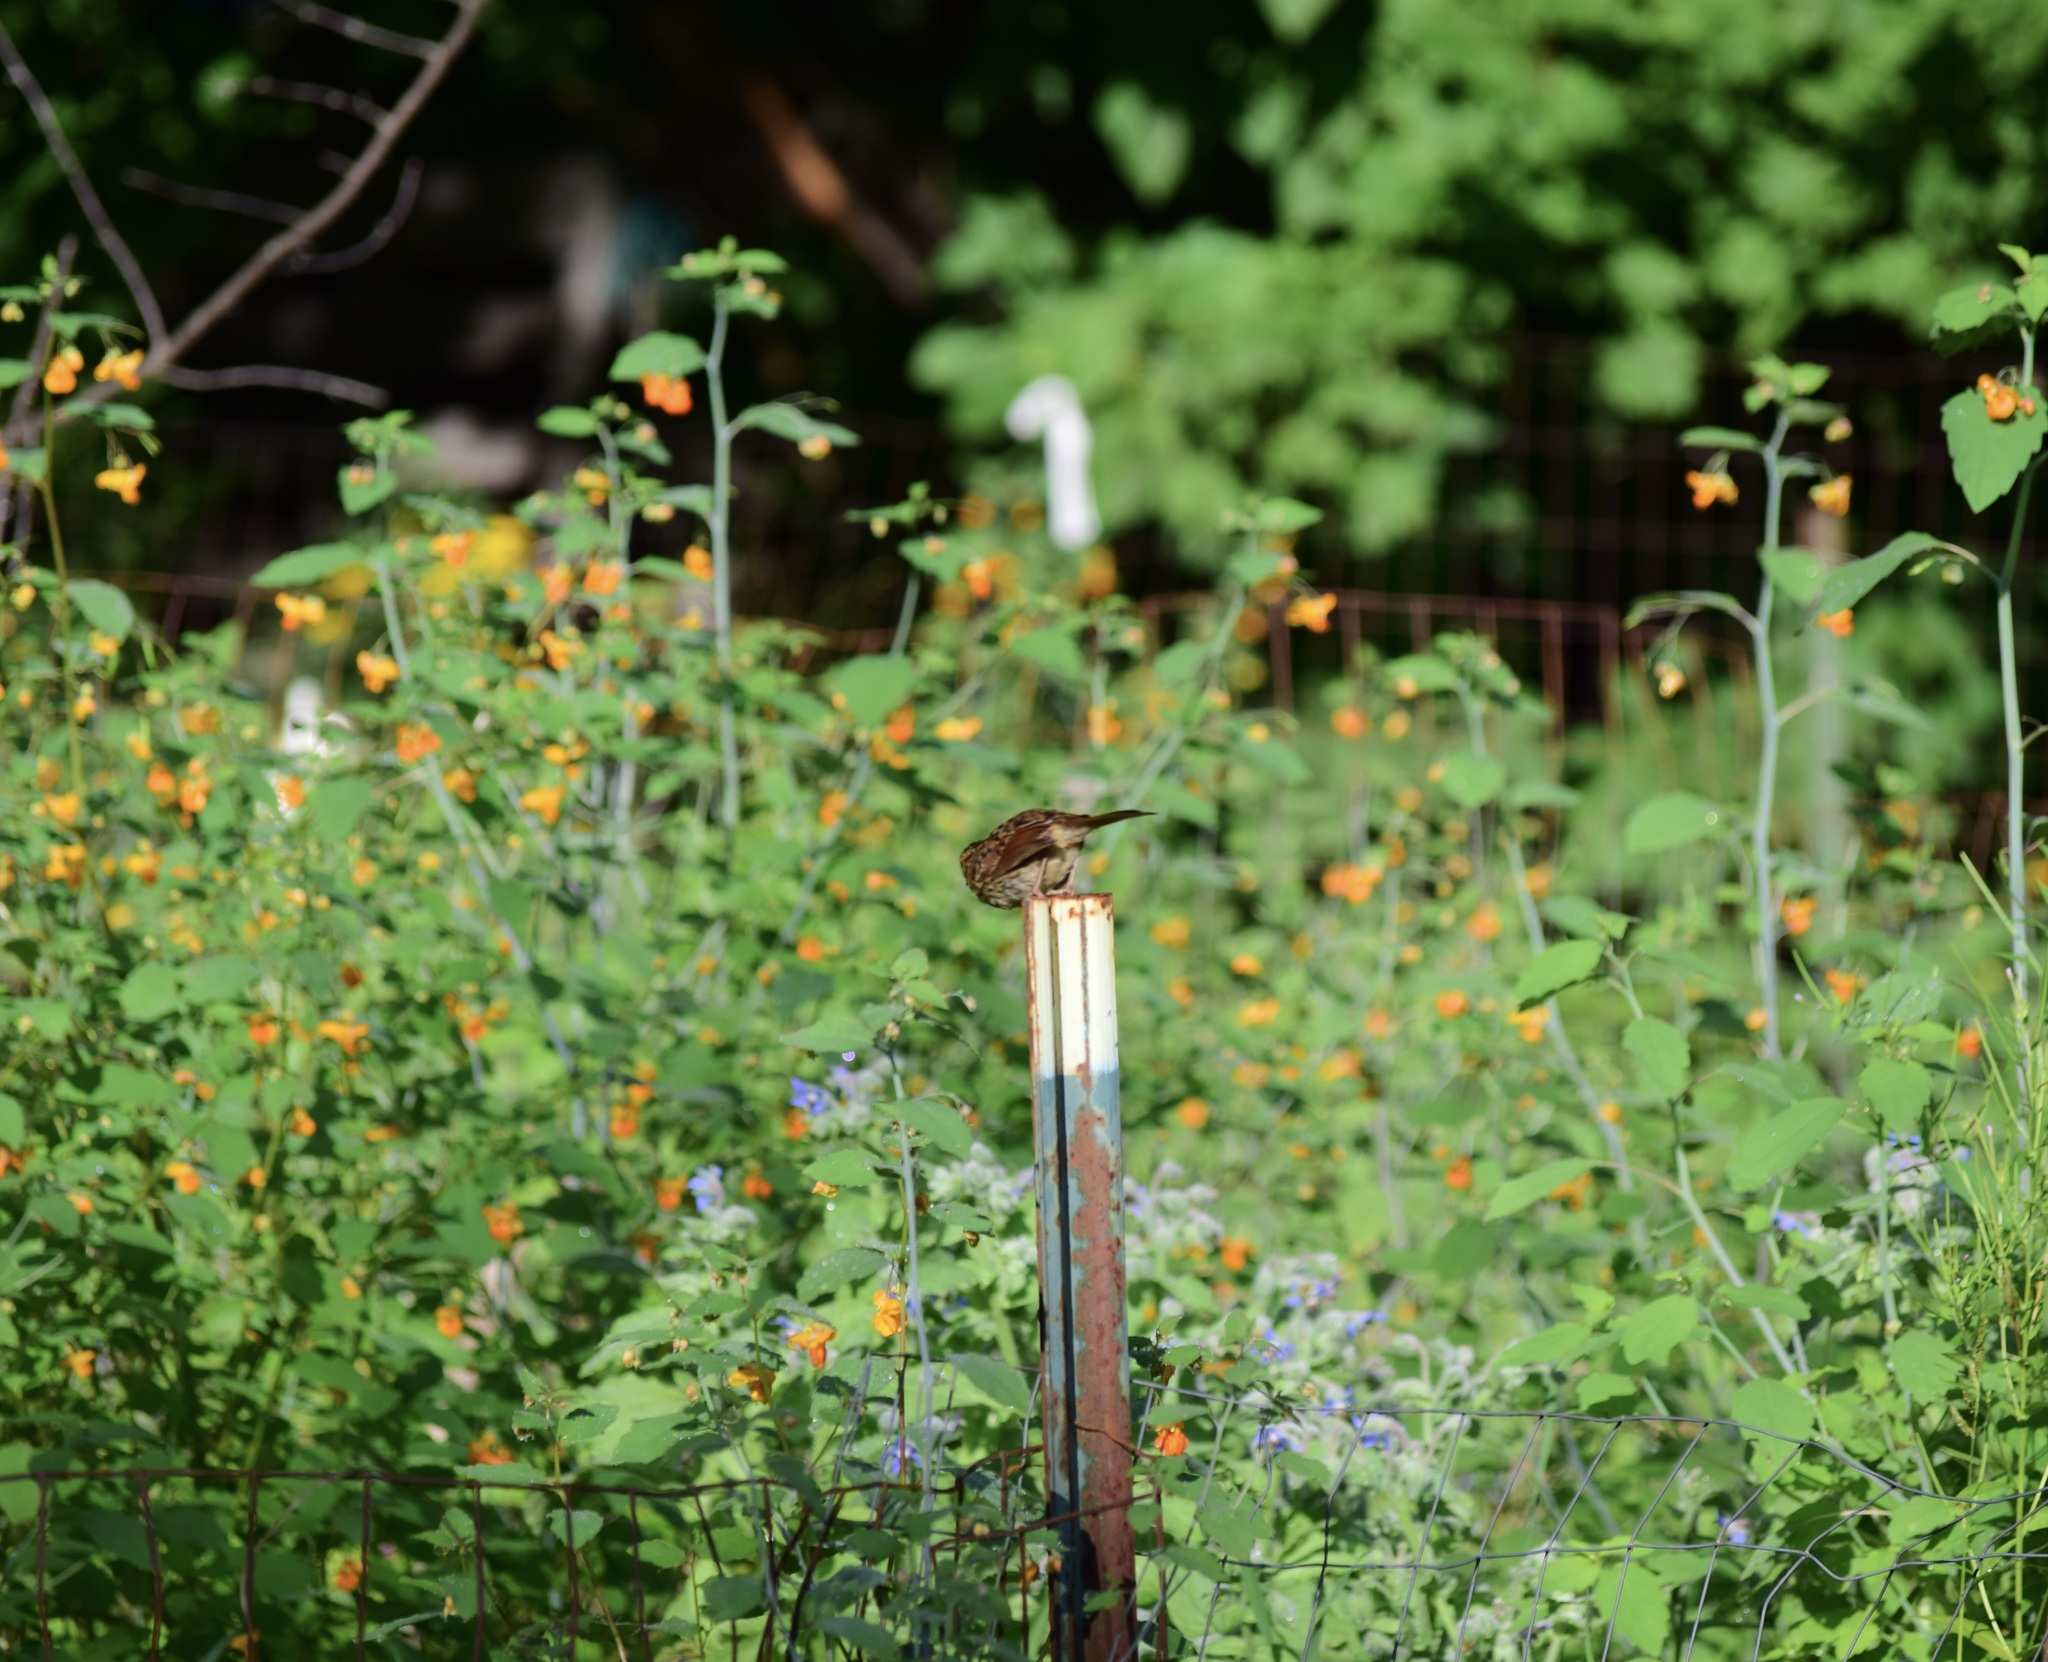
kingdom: Animalia
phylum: Chordata
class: Aves
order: Passeriformes
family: Passerellidae
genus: Melospiza
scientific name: Melospiza melodia
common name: Song sparrow
